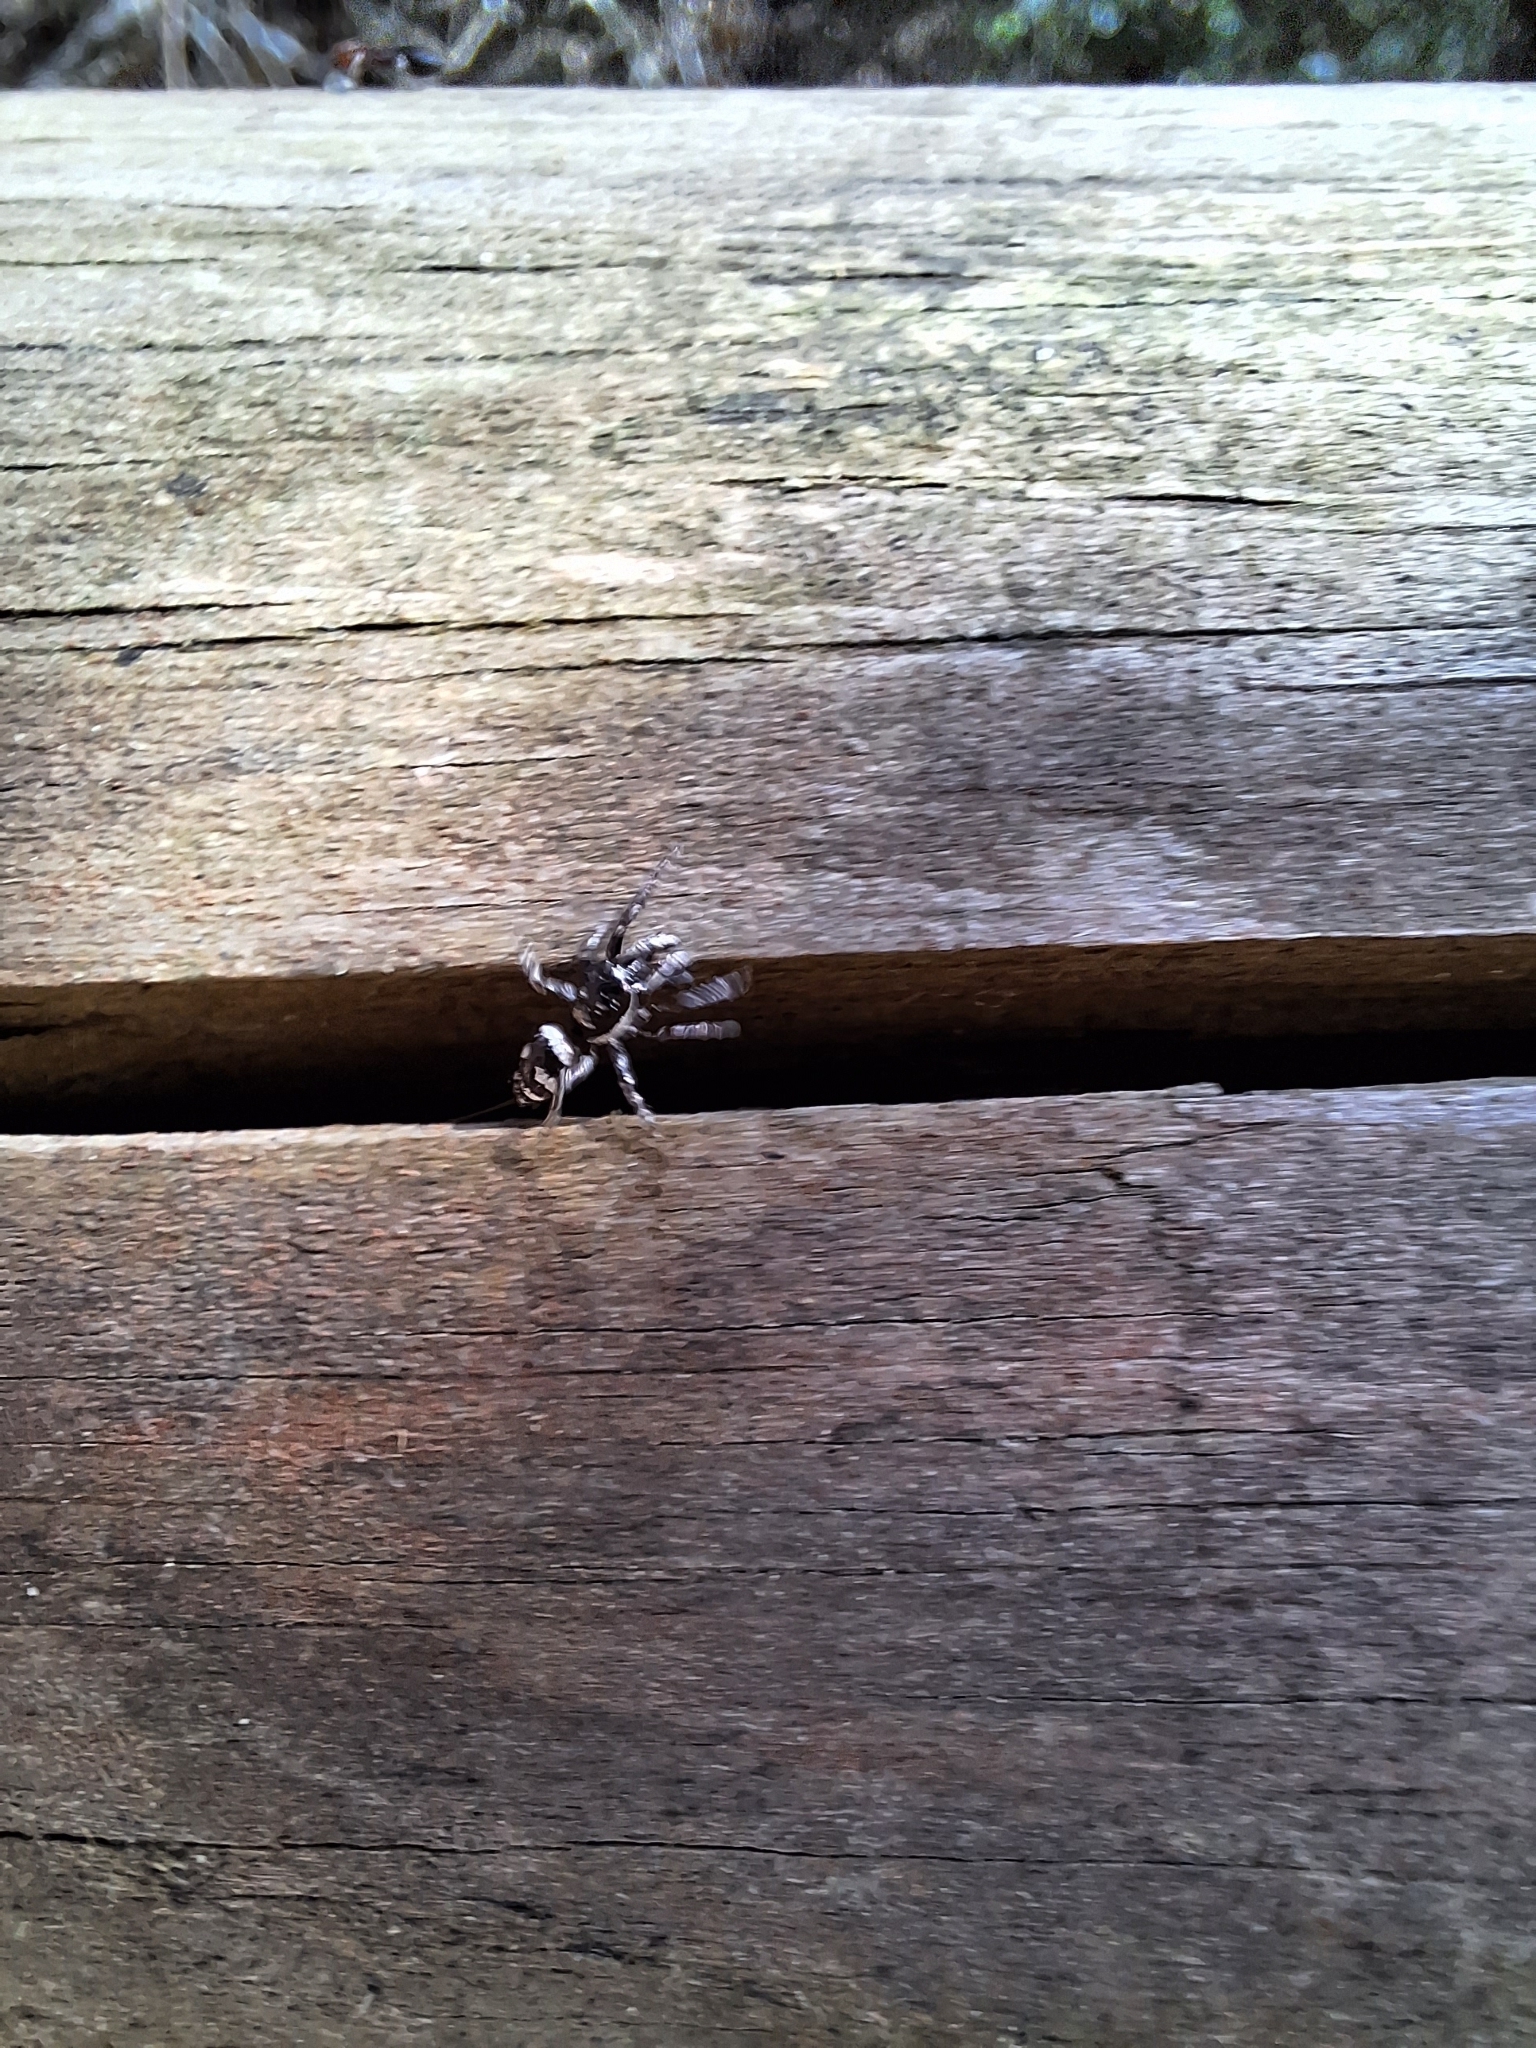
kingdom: Animalia
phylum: Arthropoda
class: Arachnida
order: Araneae
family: Salticidae
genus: Salticus
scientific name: Salticus scenicus
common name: Zebra jumper
